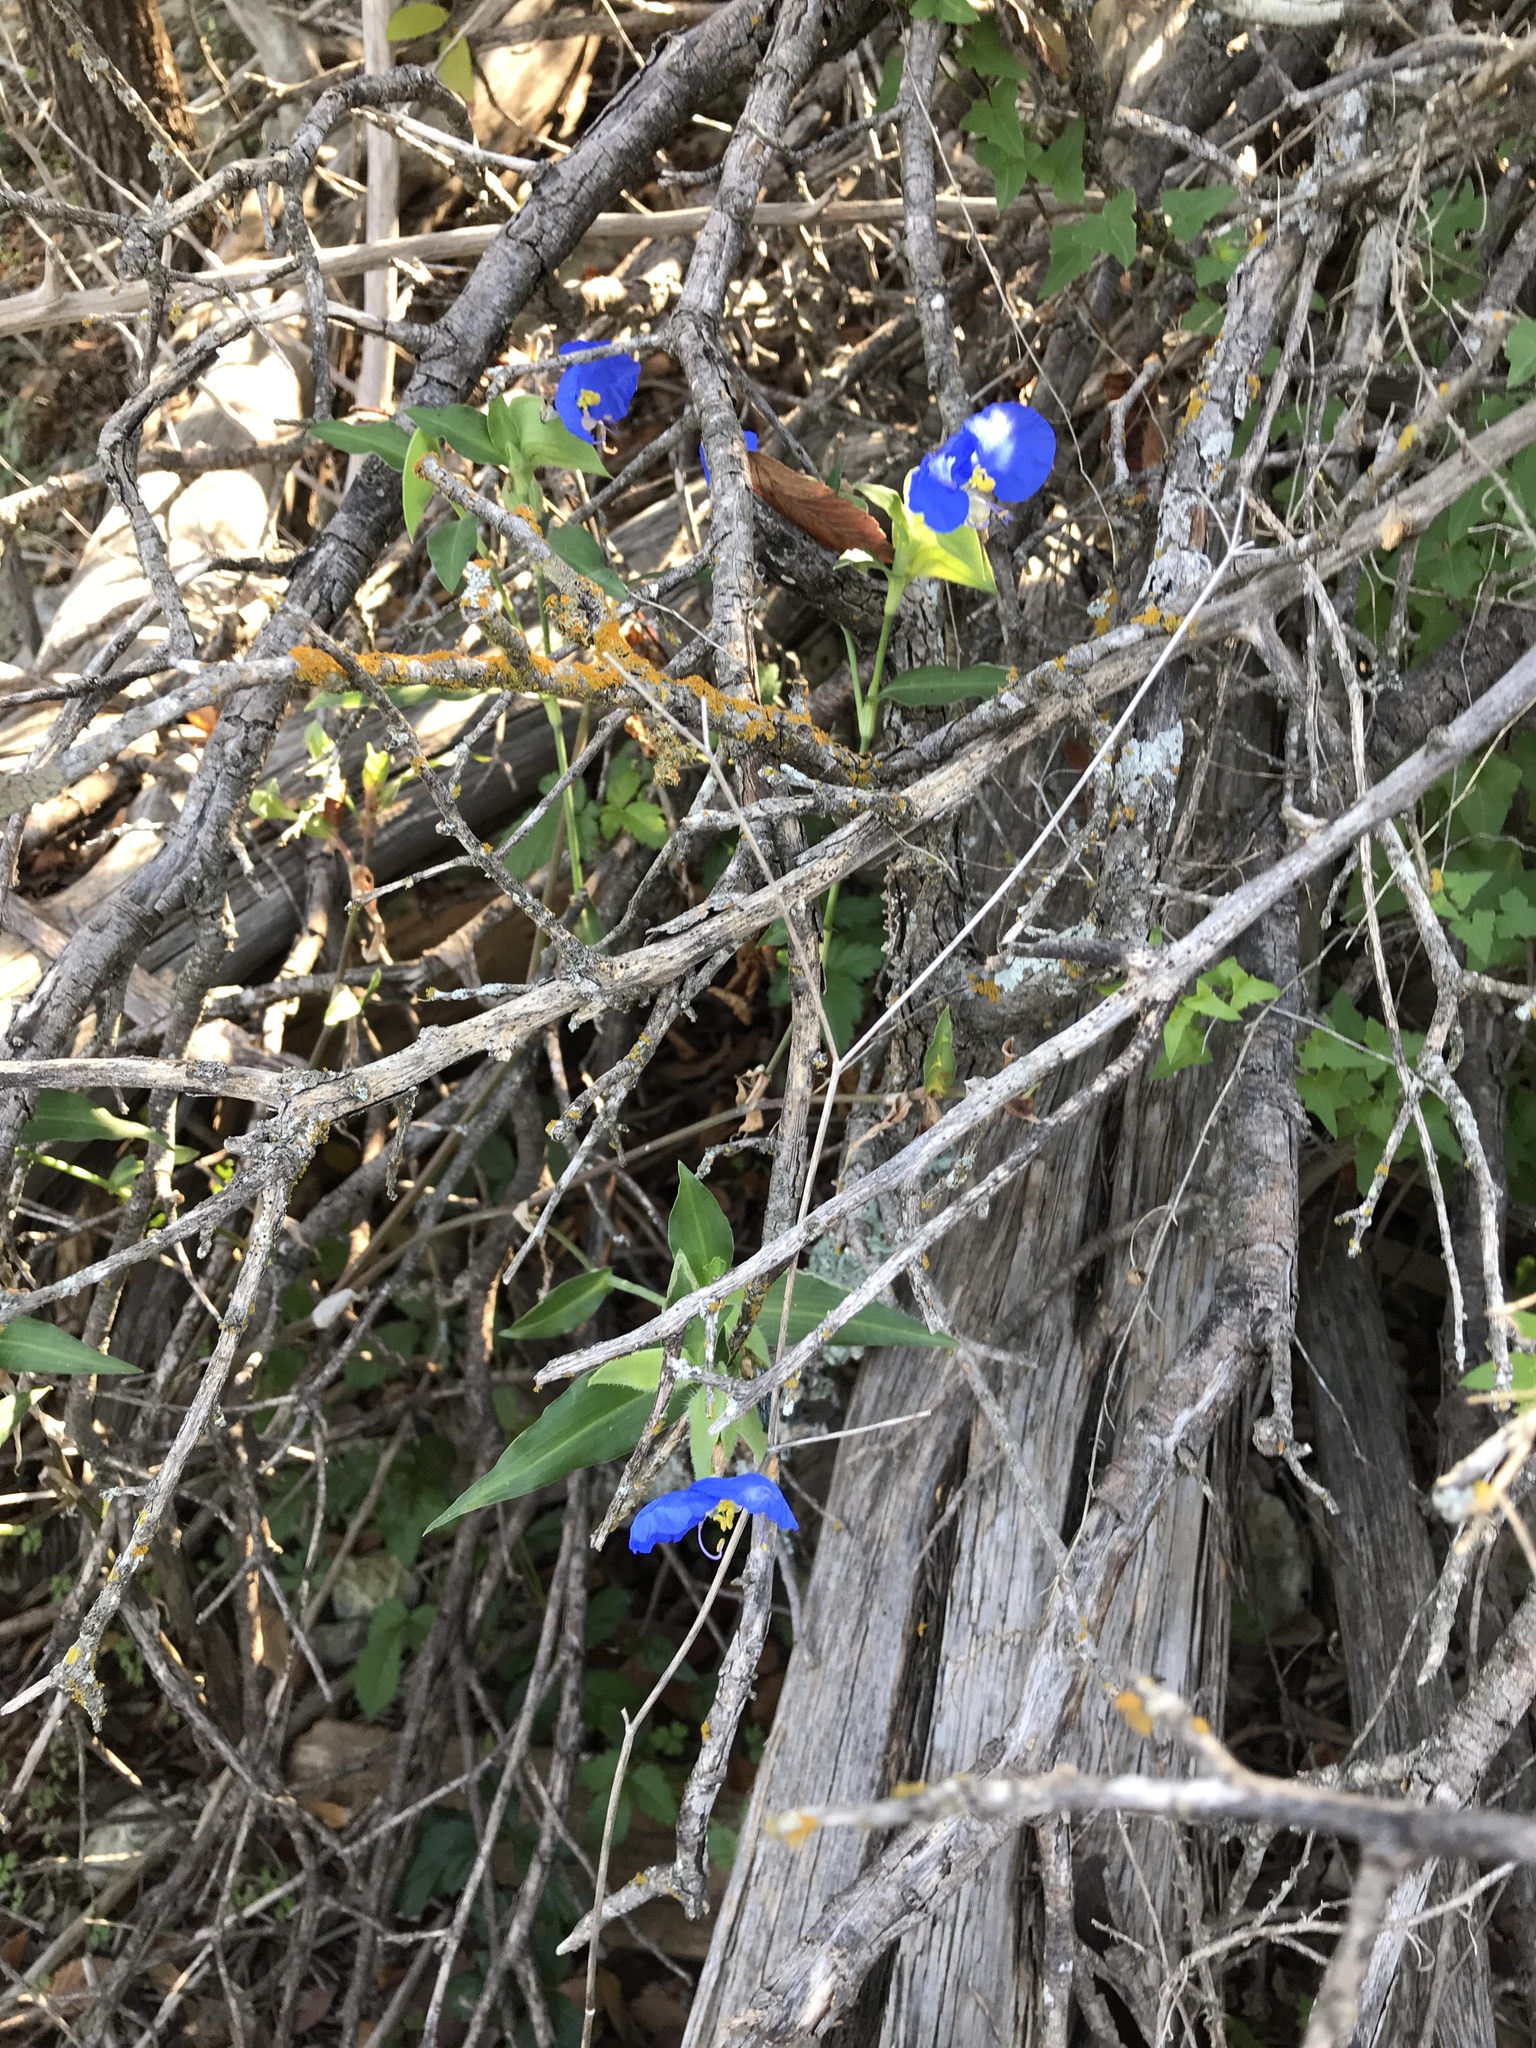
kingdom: Plantae
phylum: Tracheophyta
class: Liliopsida
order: Commelinales
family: Commelinaceae
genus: Commelina
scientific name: Commelina erecta
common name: Blousel blommetjie
